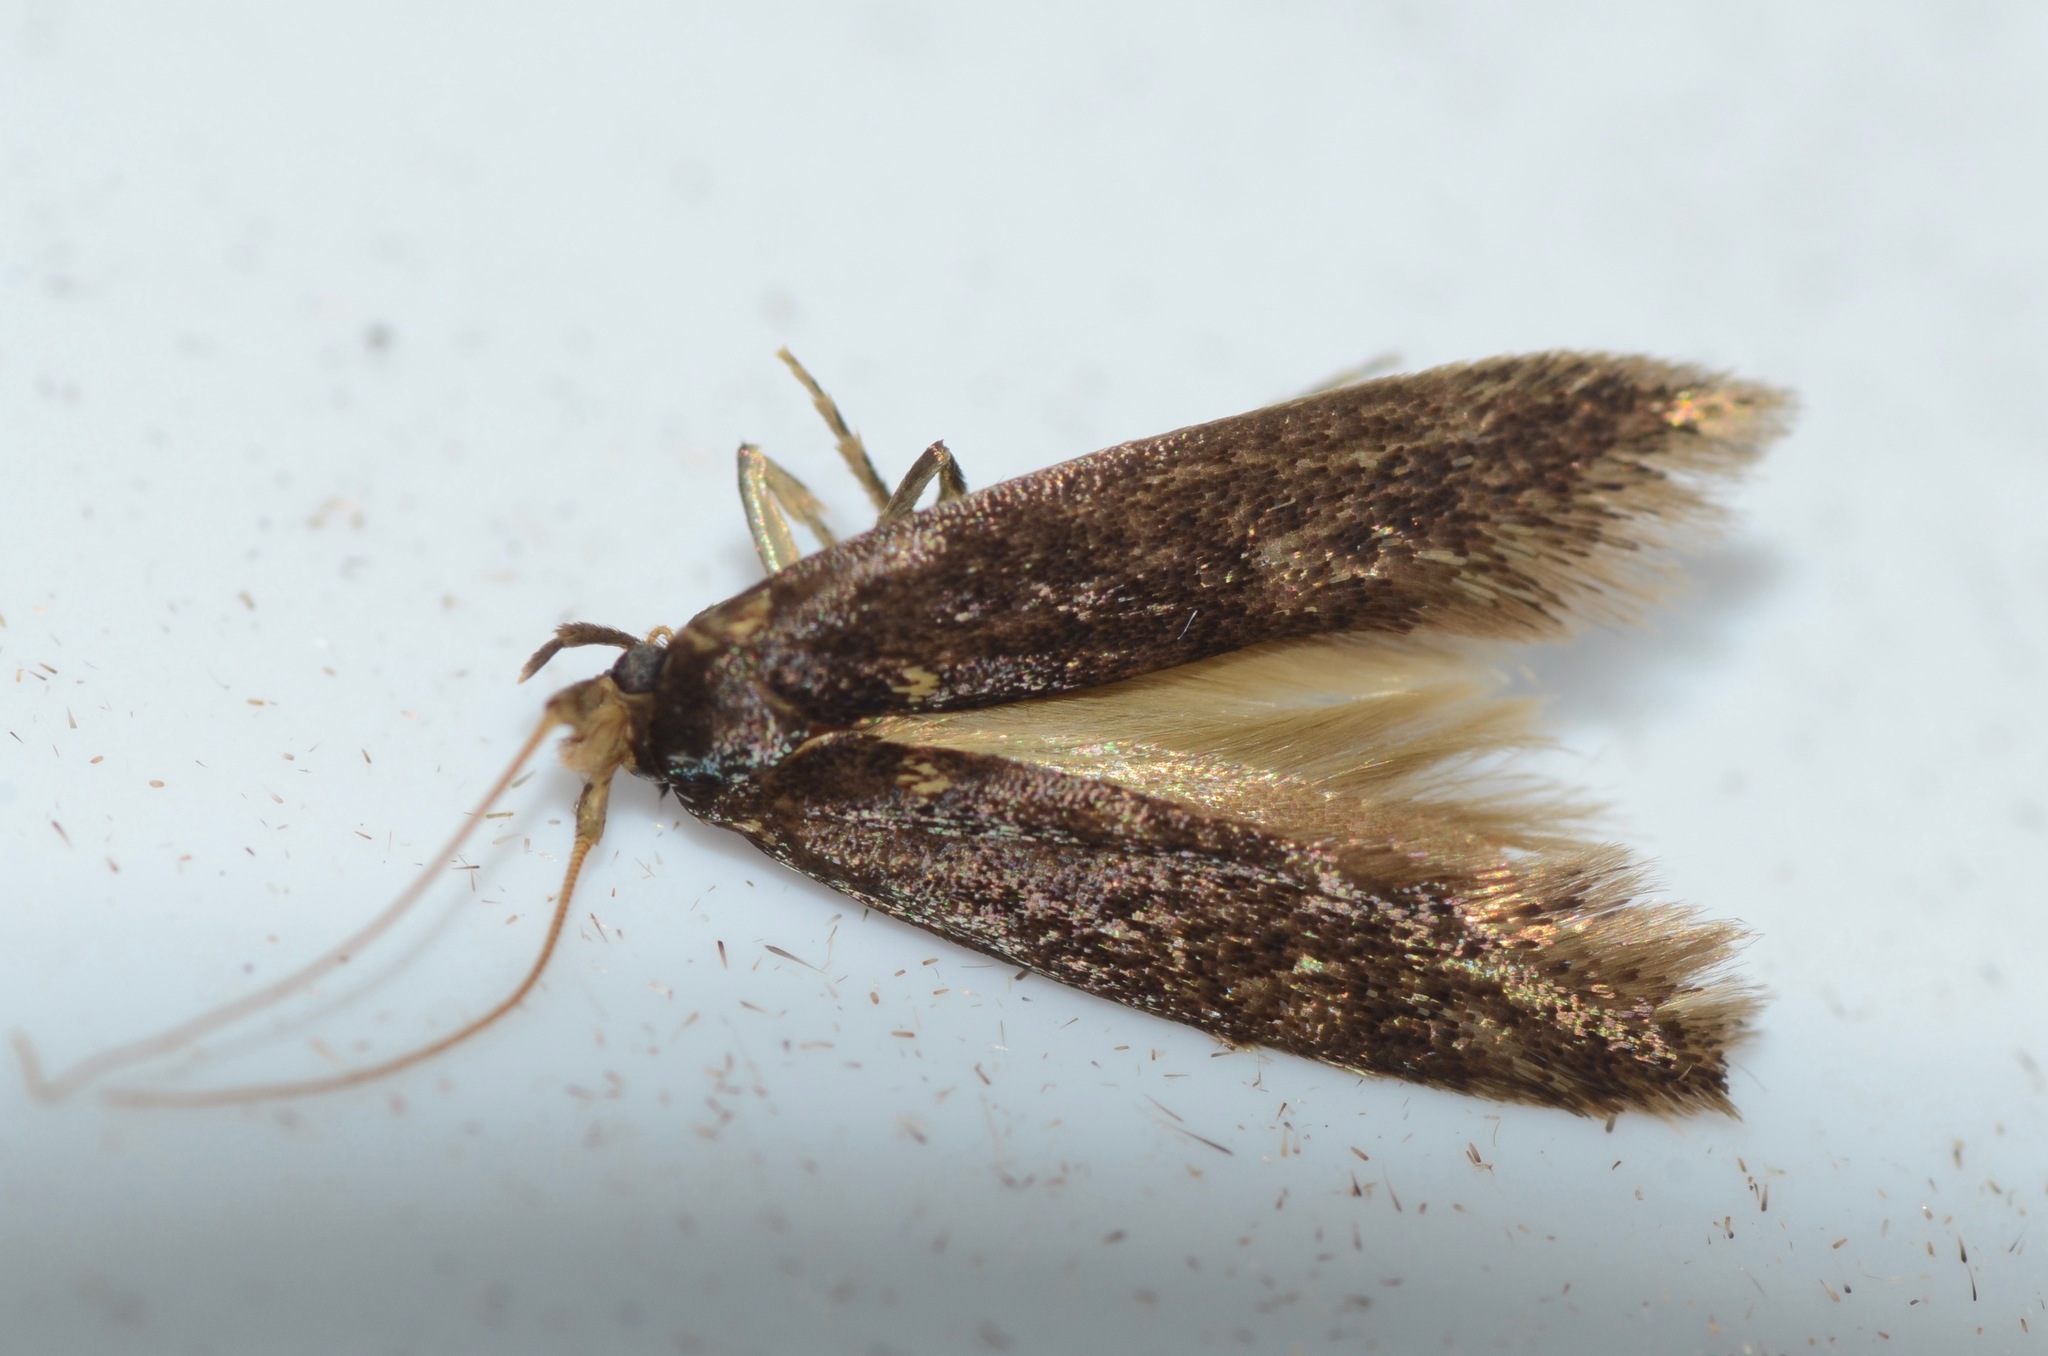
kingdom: Animalia
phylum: Arthropoda
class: Insecta
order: Lepidoptera
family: Tineidae
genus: Opogona
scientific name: Opogona omoscopa
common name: Moth
